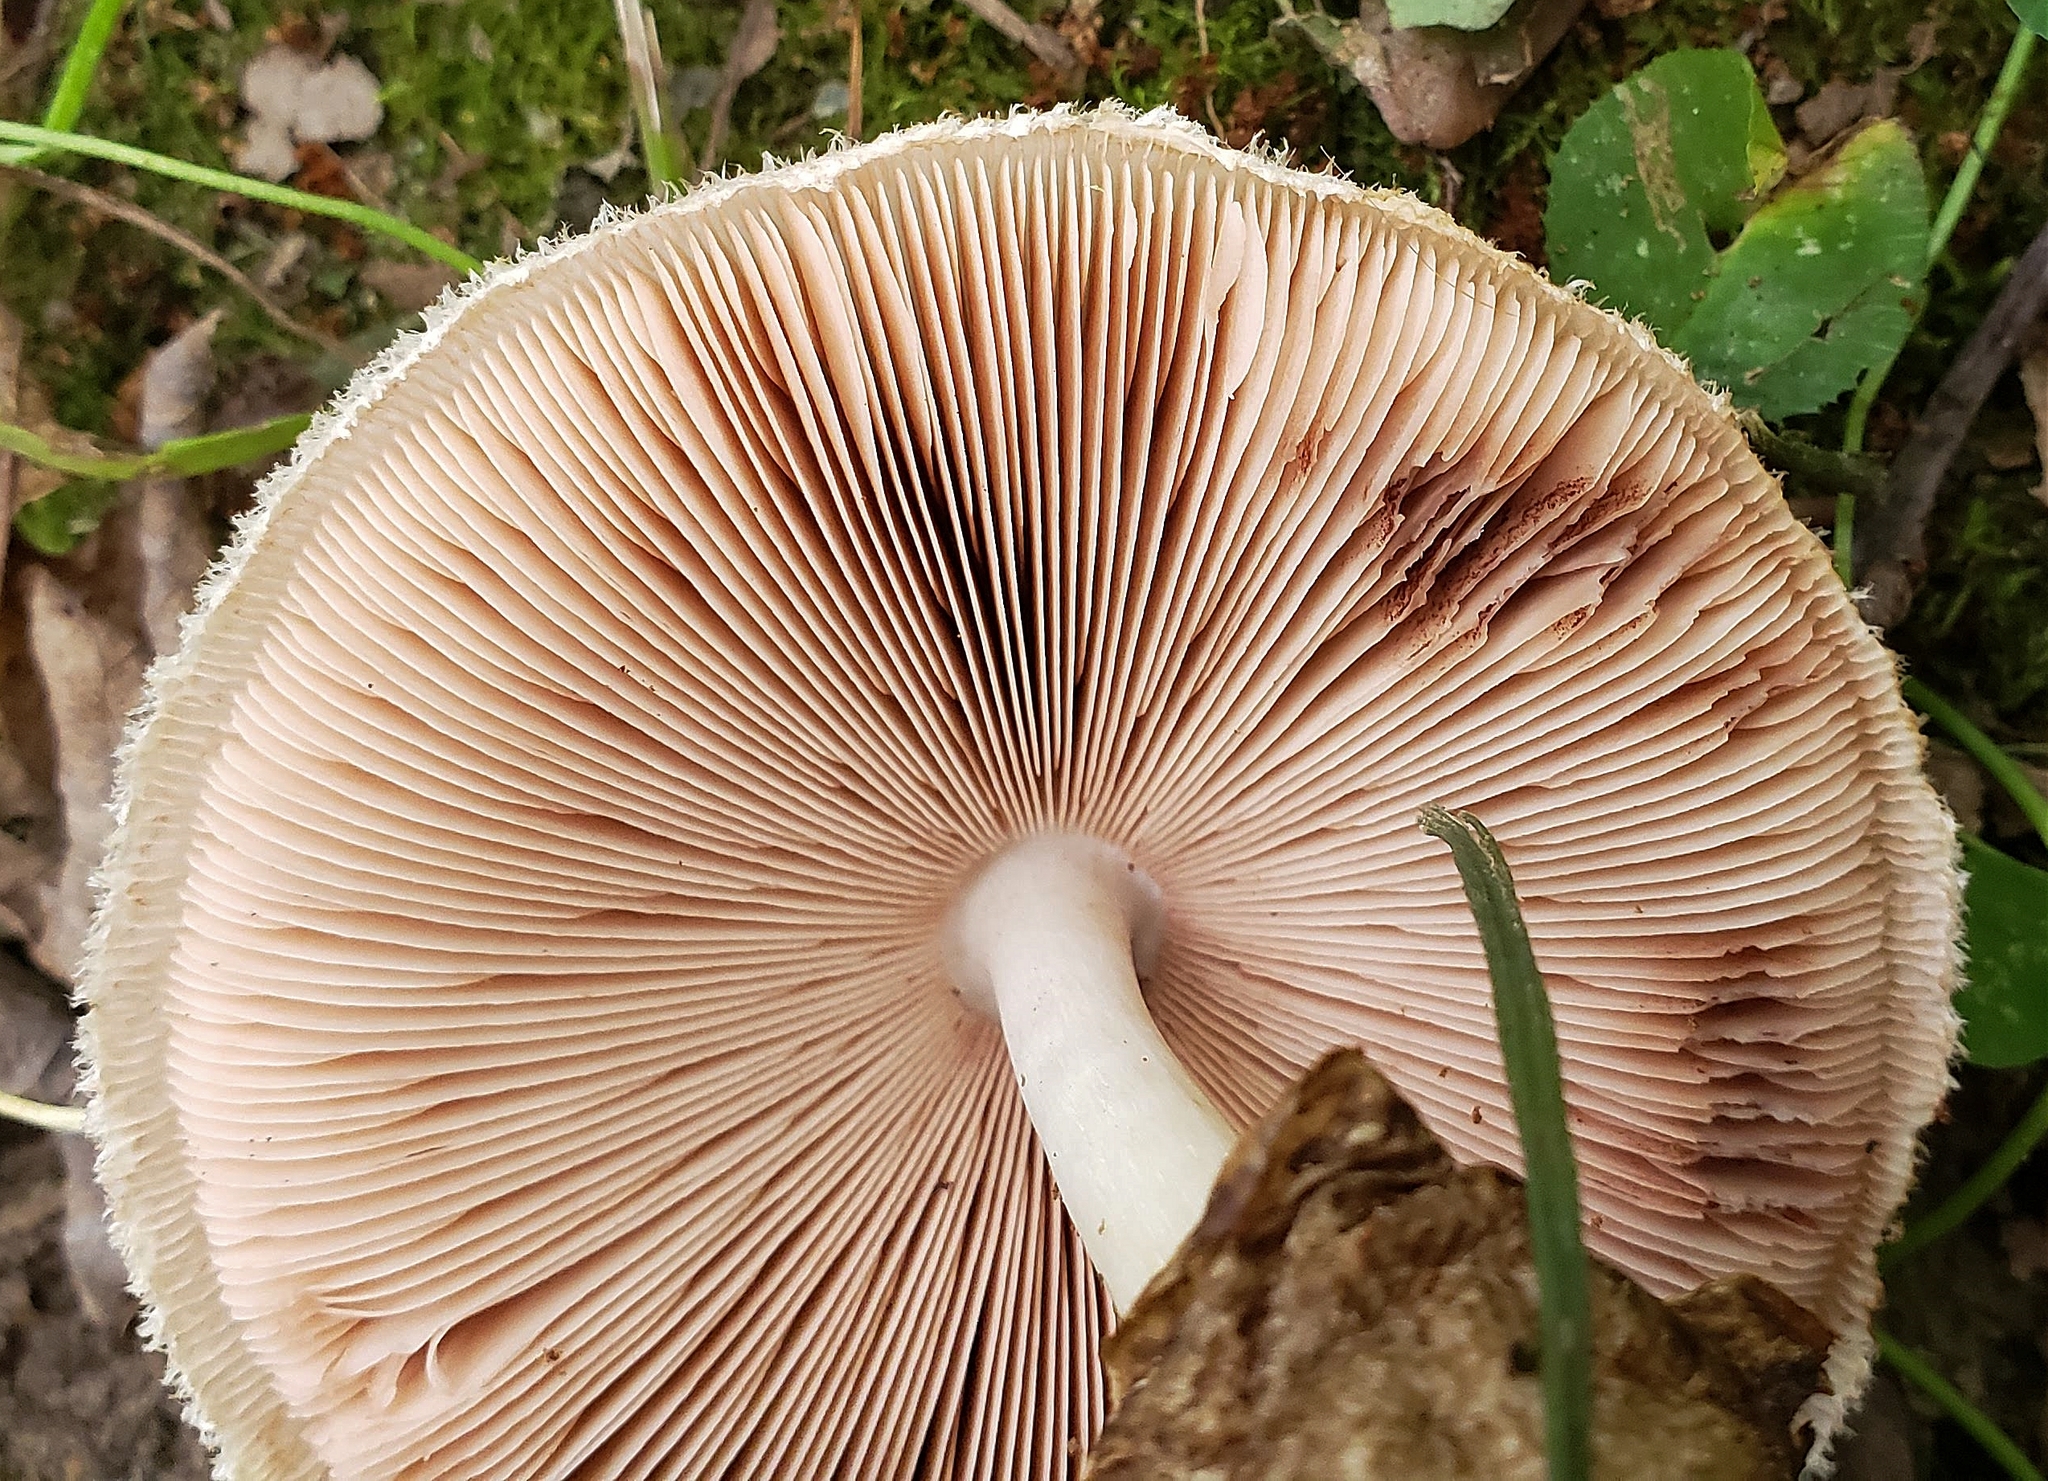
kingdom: Fungi
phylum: Basidiomycota
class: Agaricomycetes
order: Agaricales
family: Pluteaceae
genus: Volvariella
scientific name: Volvariella bombycina
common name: Silky rosegill
